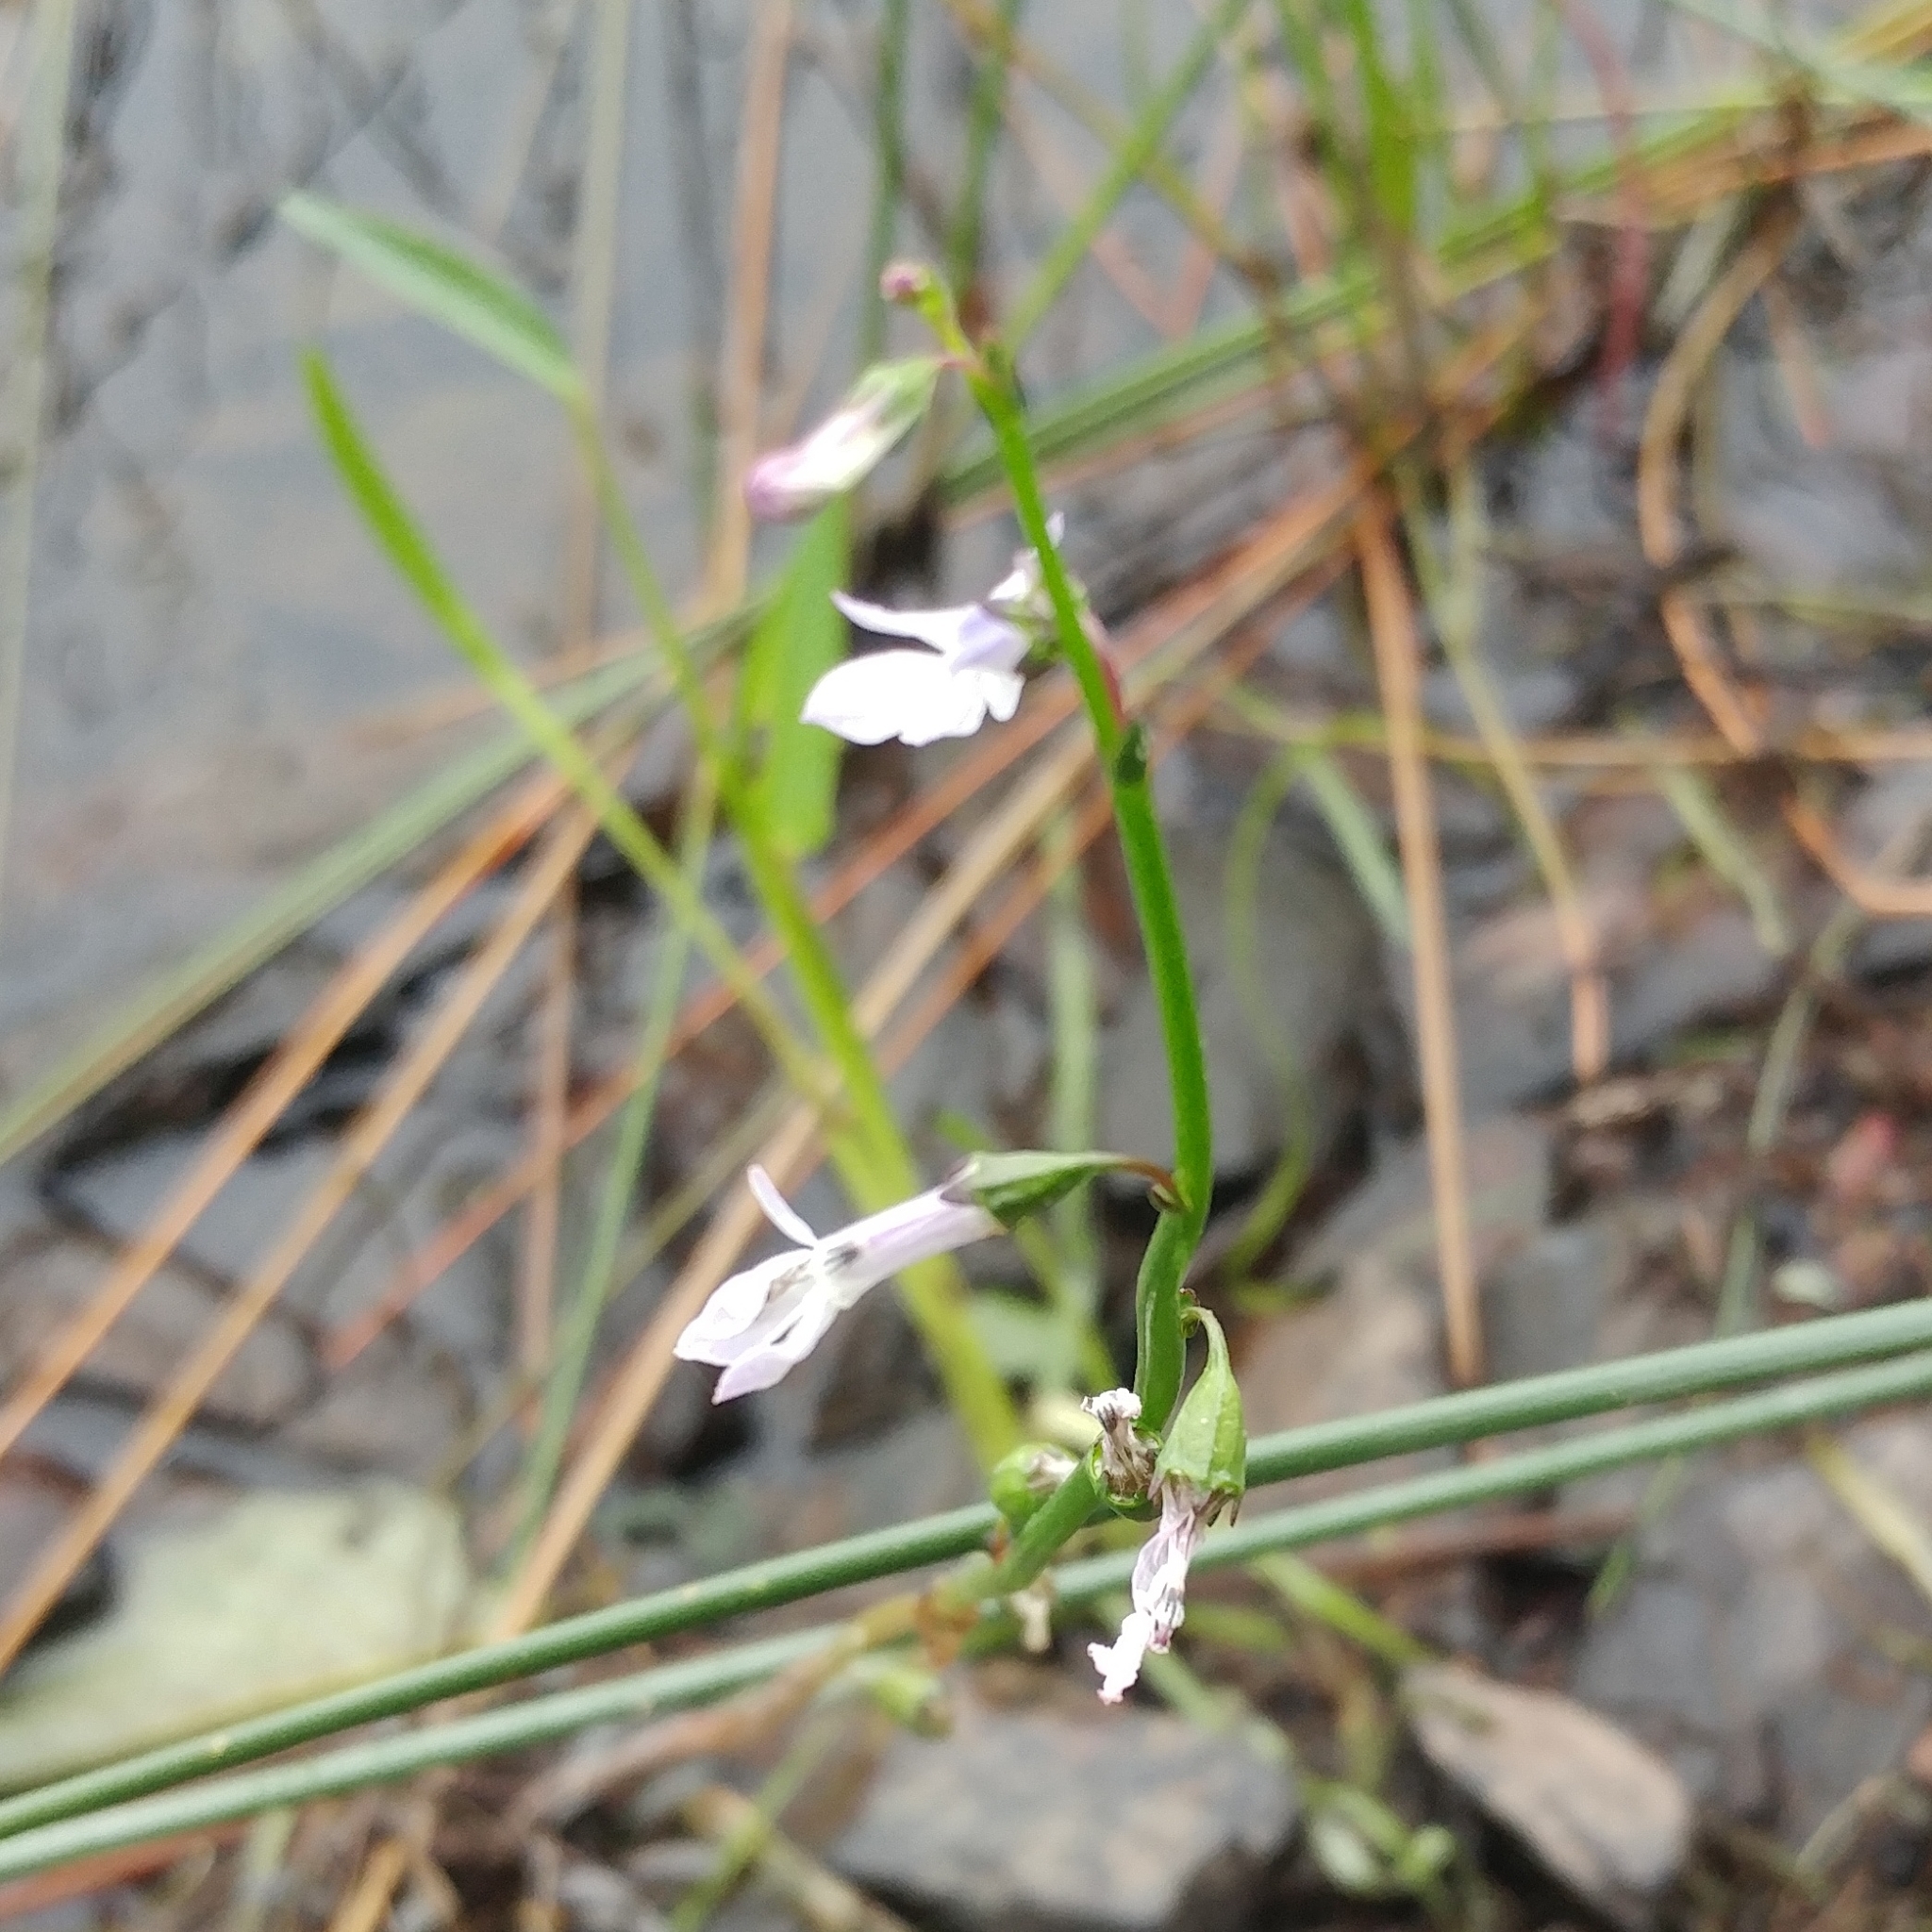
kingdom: Plantae
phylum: Tracheophyta
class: Magnoliopsida
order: Asterales
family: Campanulaceae
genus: Lobelia
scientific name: Lobelia dortmanna
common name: Water lobelia
